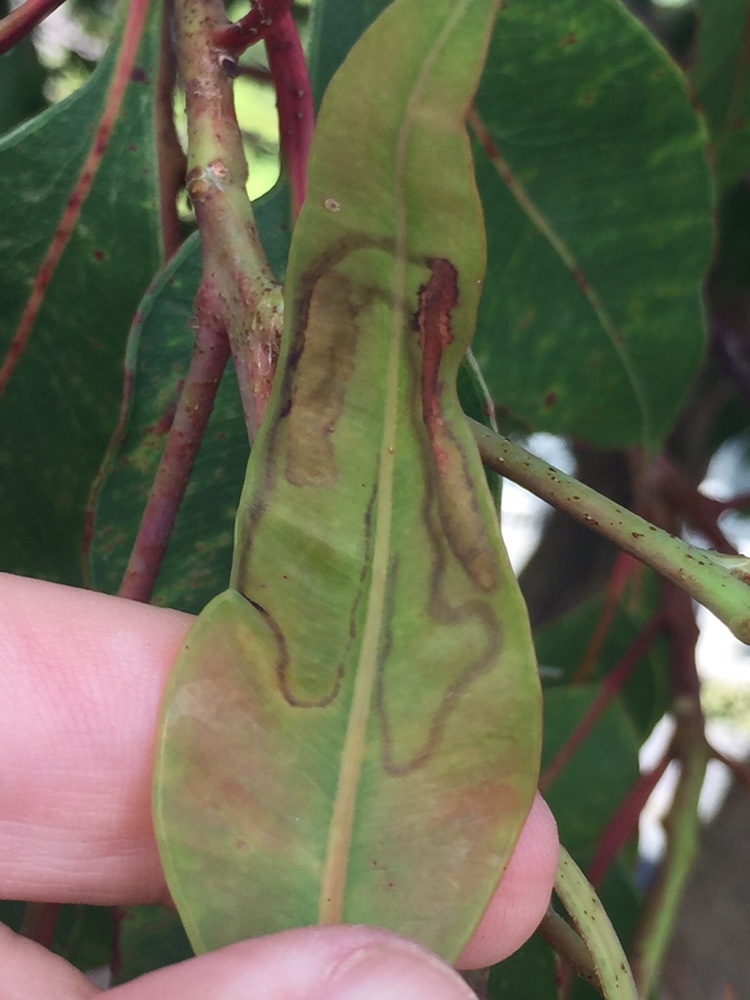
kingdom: Animalia
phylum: Arthropoda
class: Insecta
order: Lepidoptera
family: Gracillariidae
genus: Macarostola
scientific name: Macarostola ida
